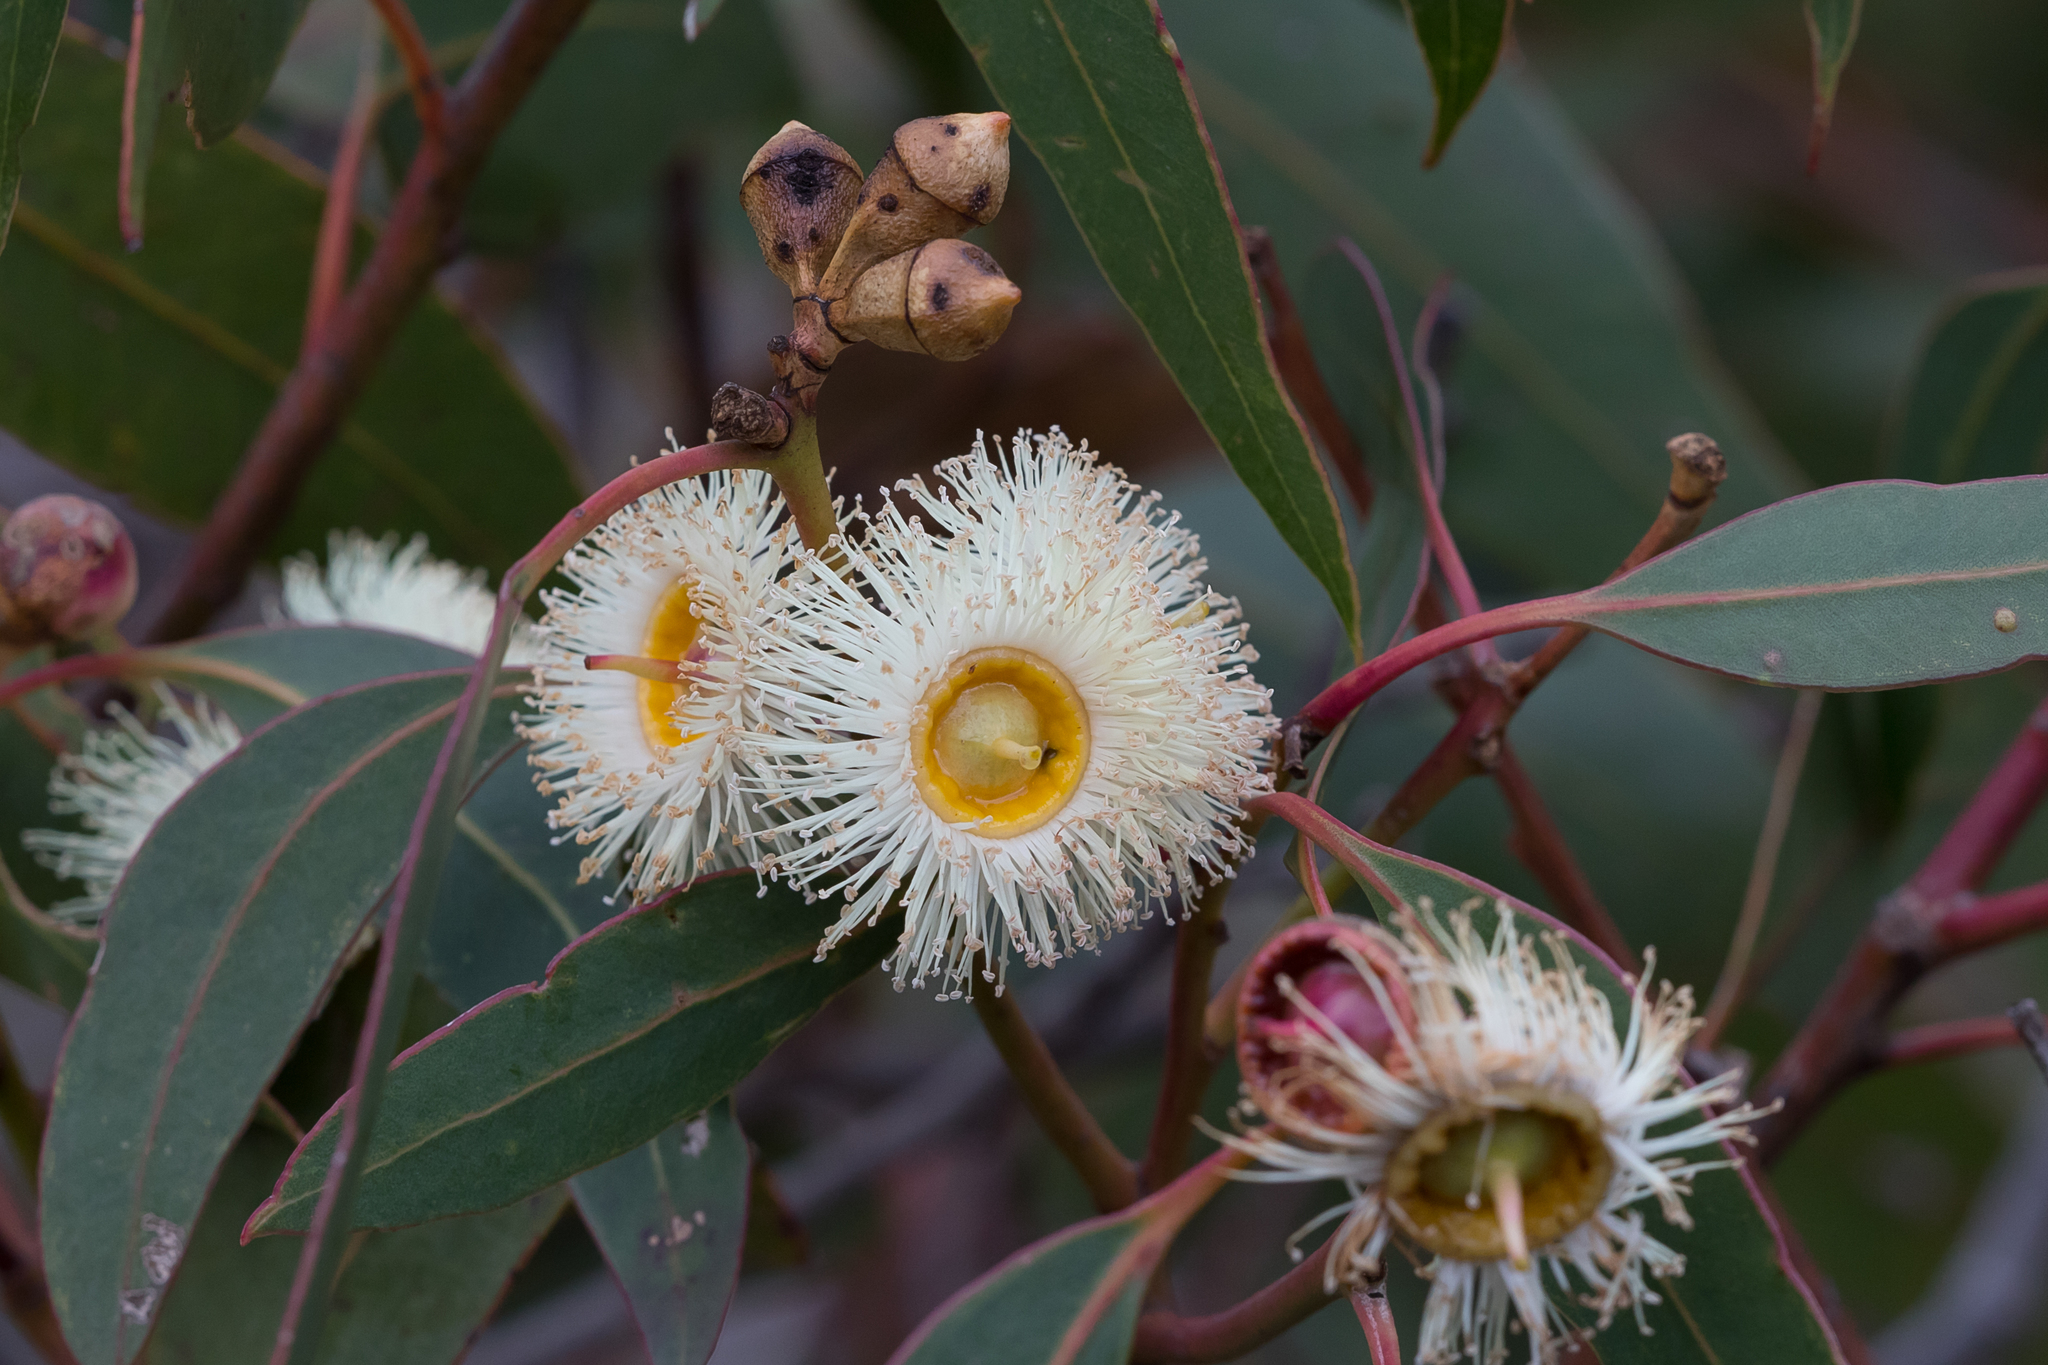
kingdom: Plantae
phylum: Tracheophyta
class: Magnoliopsida
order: Myrtales
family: Myrtaceae
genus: Eucalyptus
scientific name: Eucalyptus cosmophylla
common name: Bog-gum
